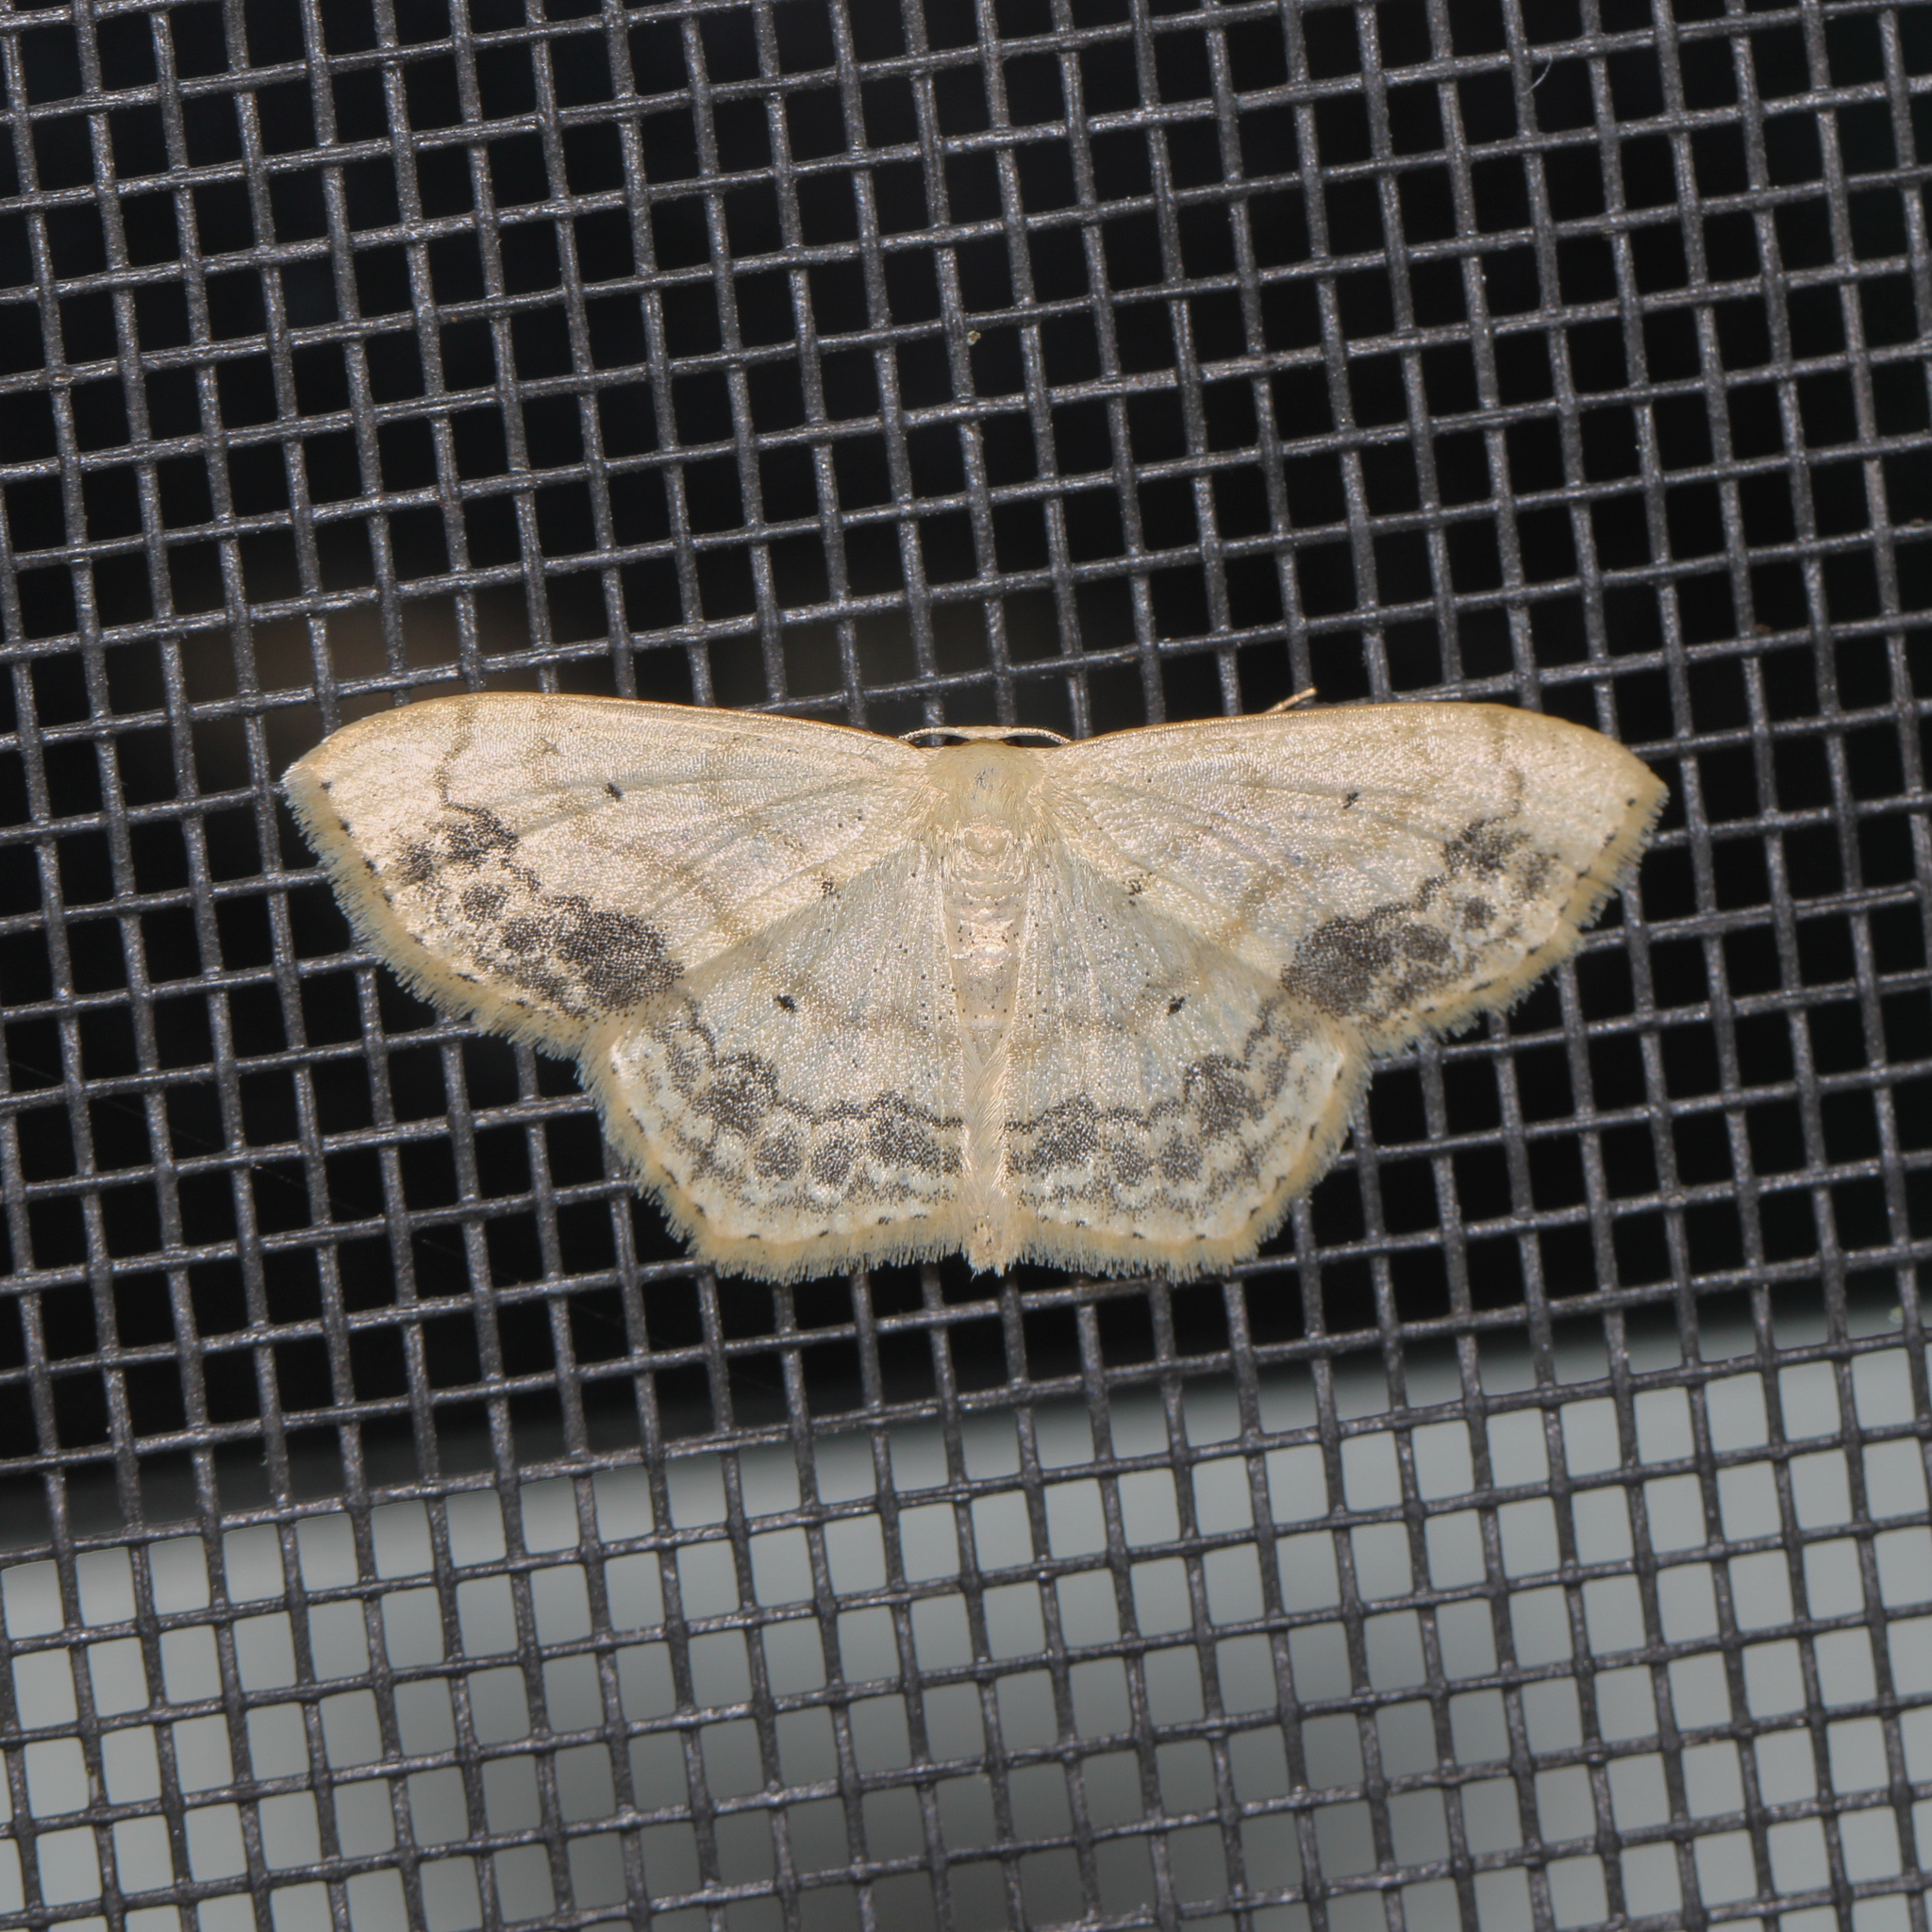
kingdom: Animalia
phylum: Arthropoda
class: Insecta
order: Lepidoptera
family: Geometridae
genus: Scopula
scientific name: Scopula limboundata
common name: Large lace border
